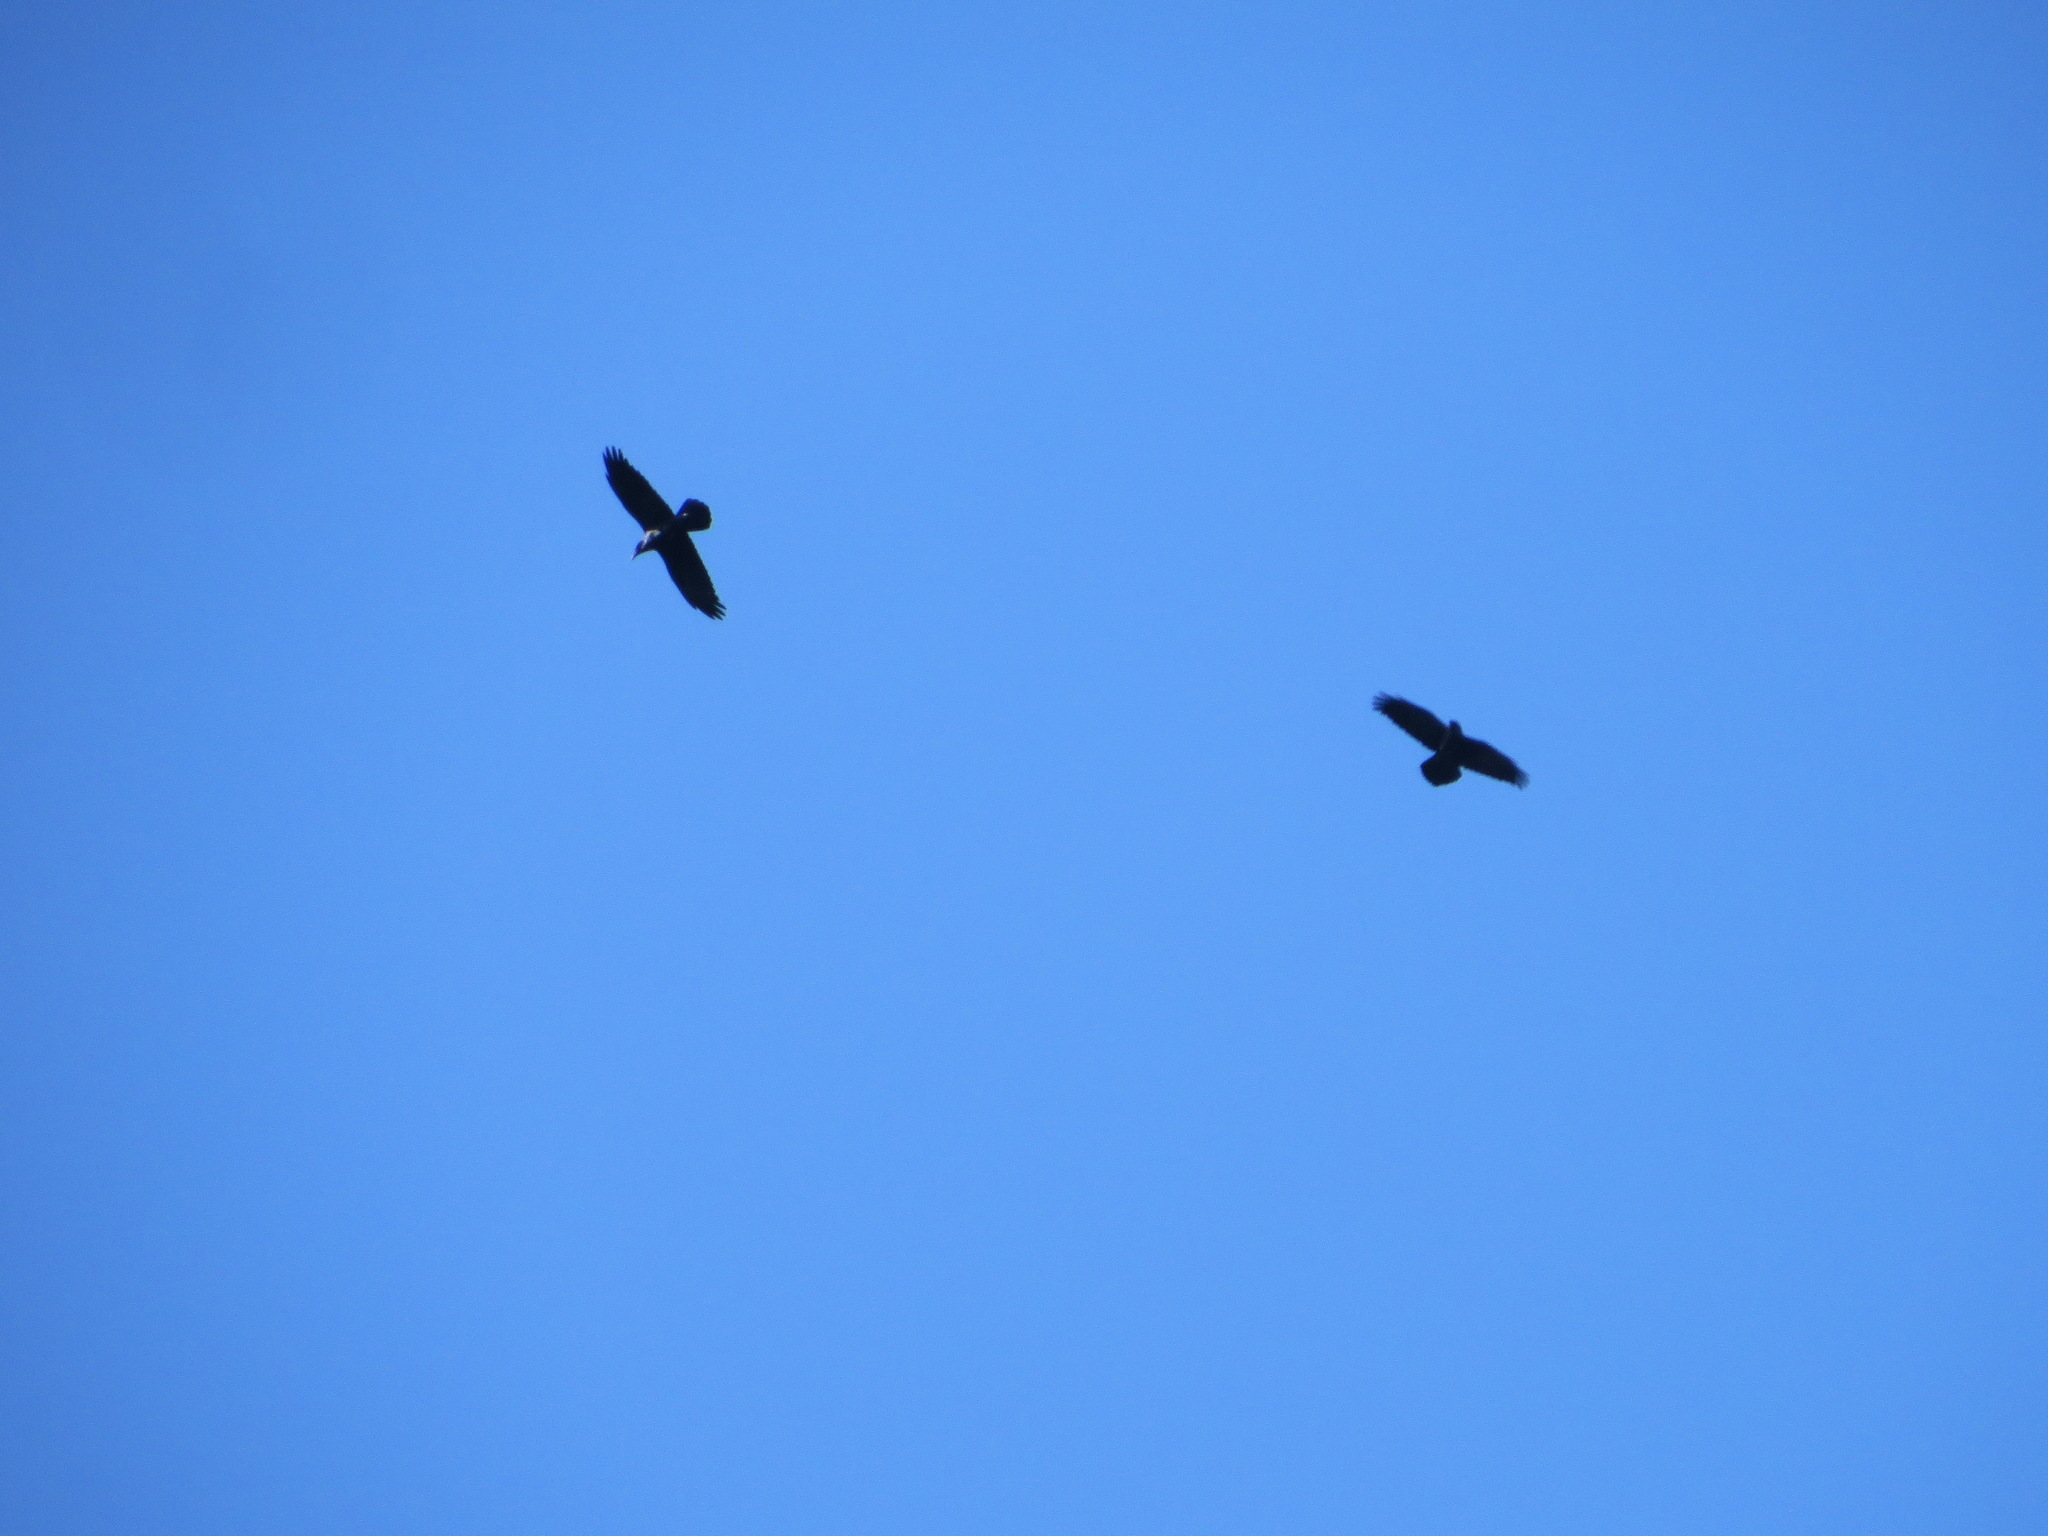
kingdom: Animalia
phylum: Chordata
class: Aves
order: Passeriformes
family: Corvidae
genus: Corvus
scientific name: Corvus corax
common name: Common raven
